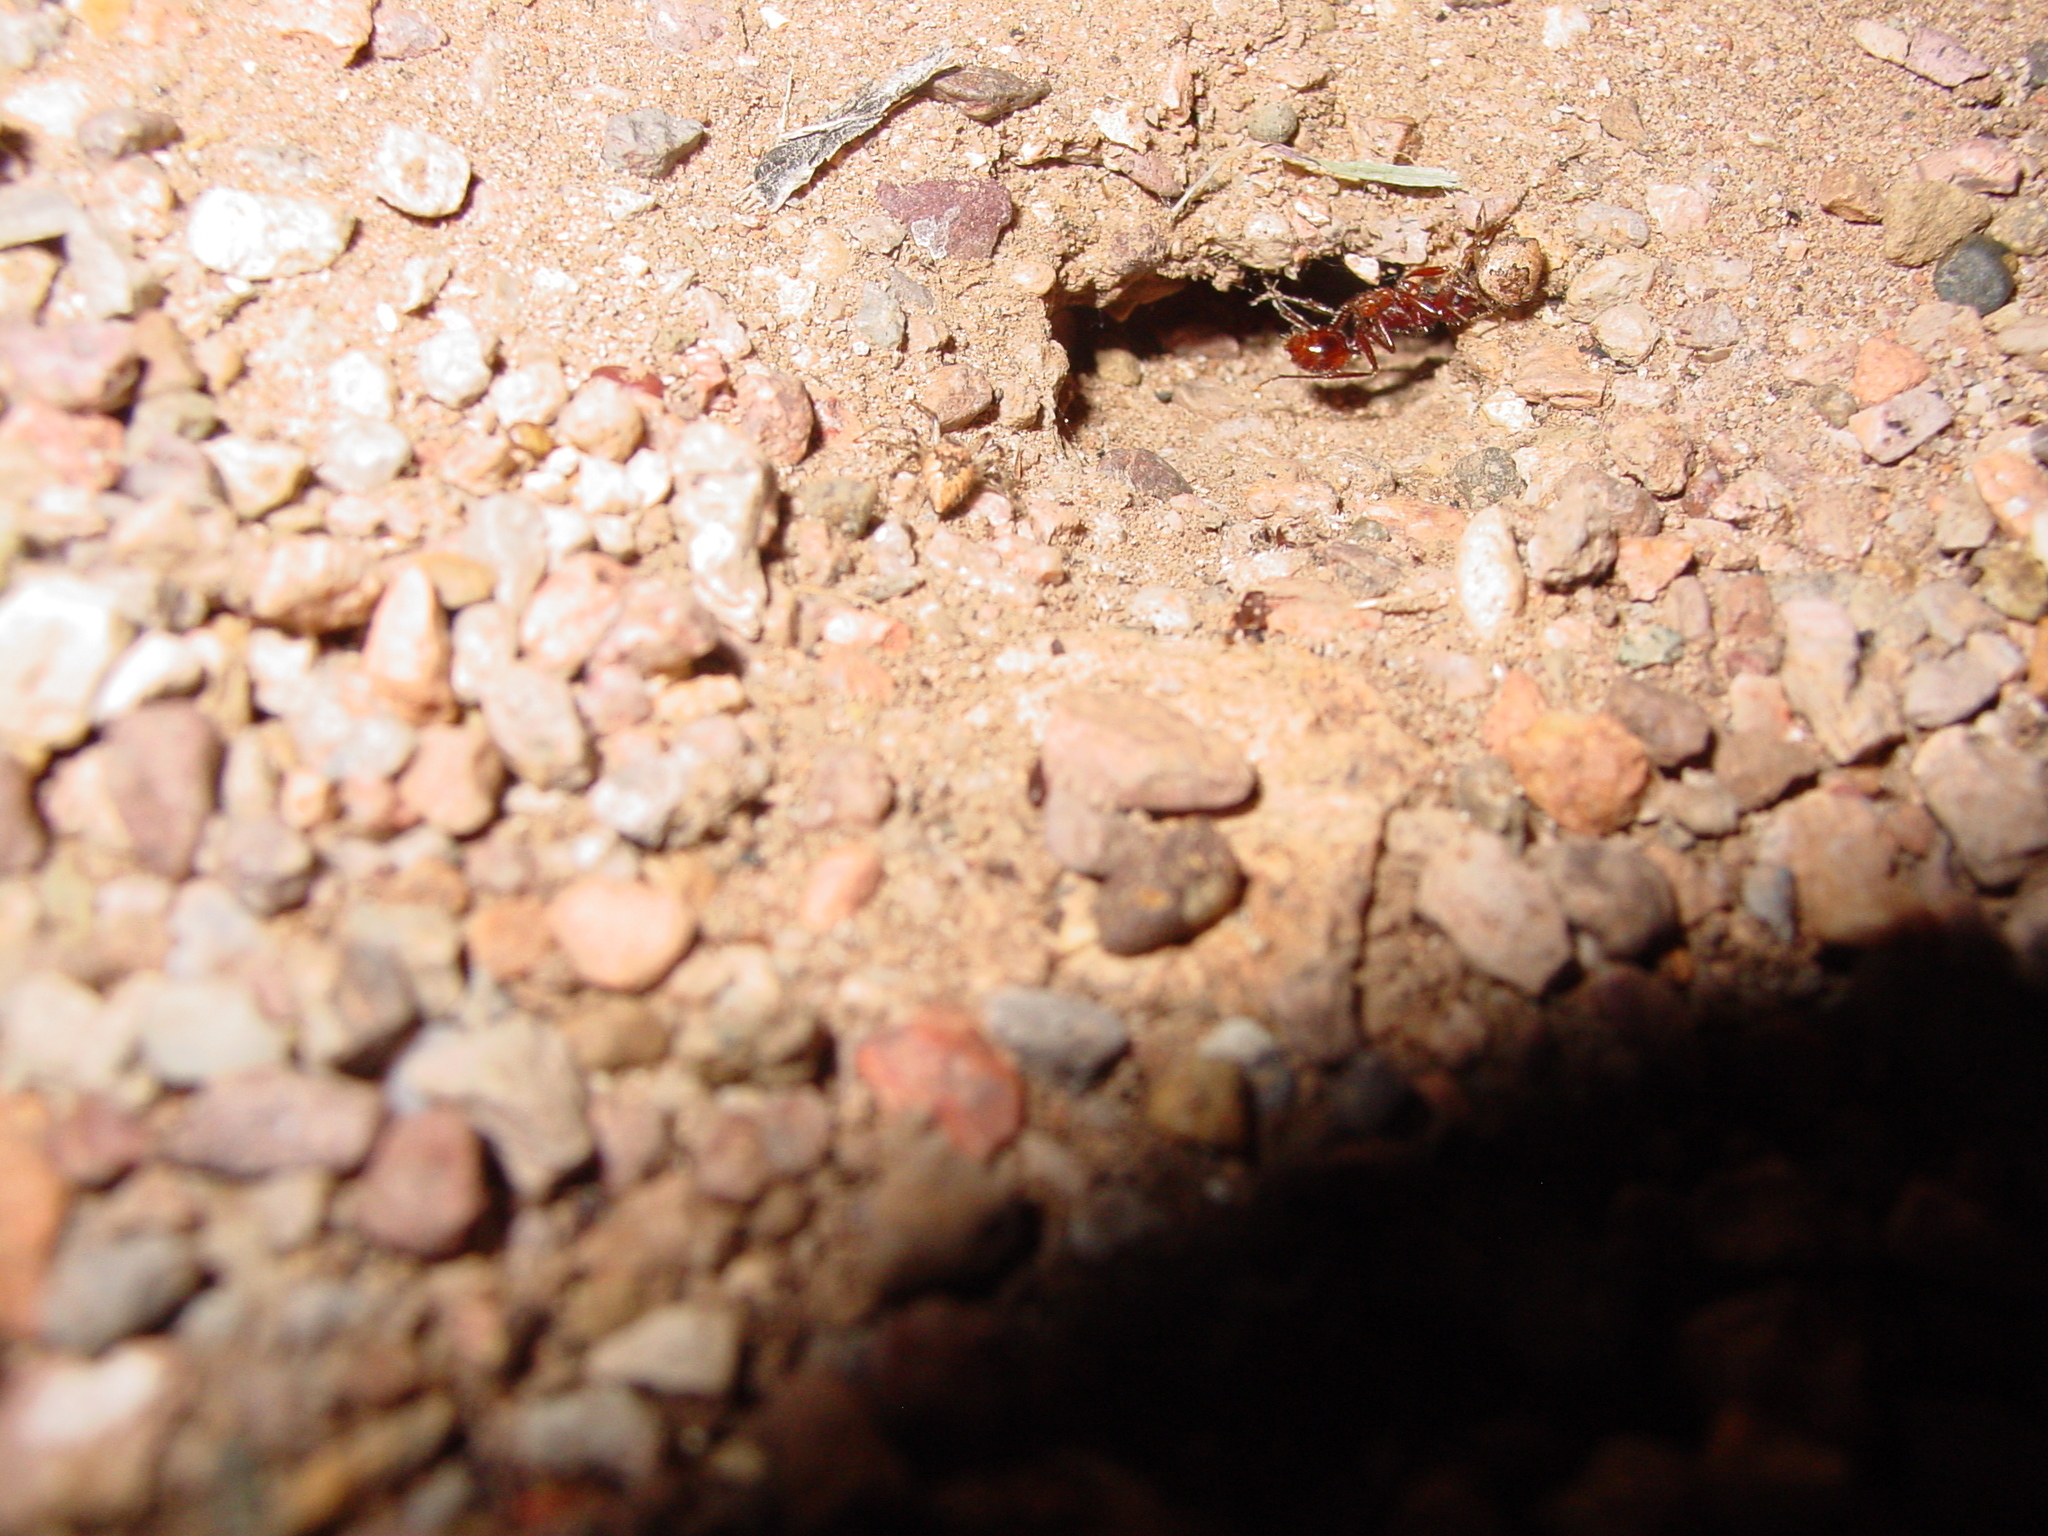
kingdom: Animalia
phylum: Arthropoda
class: Arachnida
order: Araneae
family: Theridiidae
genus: Euryopis
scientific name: Euryopis
